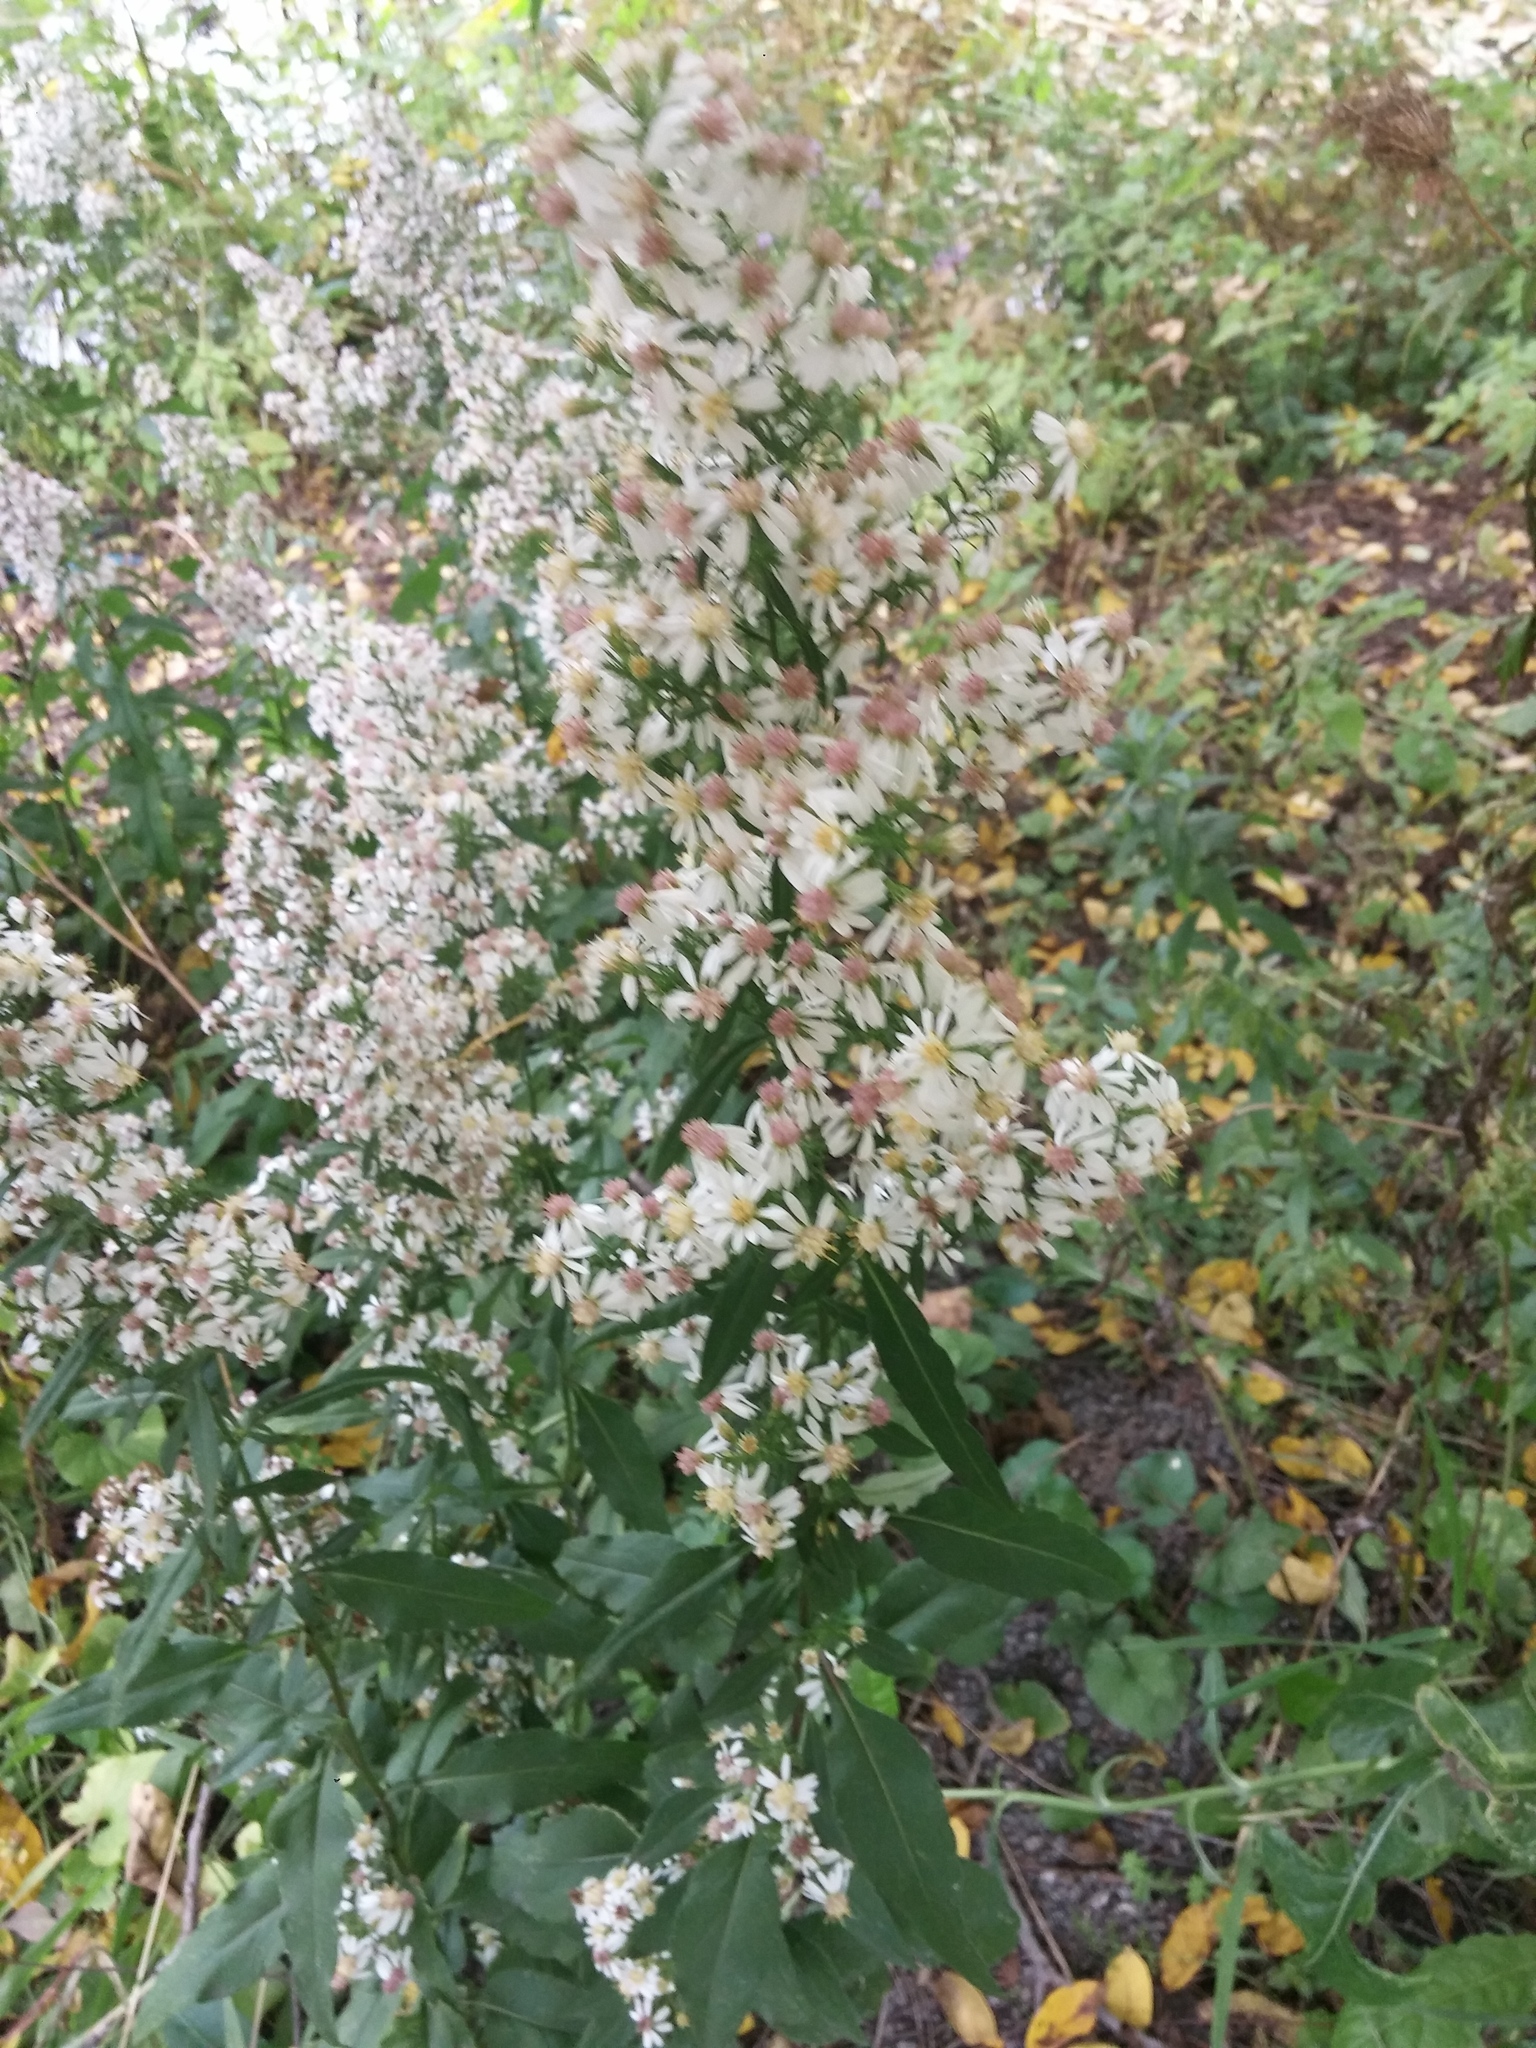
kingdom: Plantae
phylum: Tracheophyta
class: Magnoliopsida
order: Asterales
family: Asteraceae
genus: Symphyotrichum
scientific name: Symphyotrichum urophyllum
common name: Arrow-leaved aster
